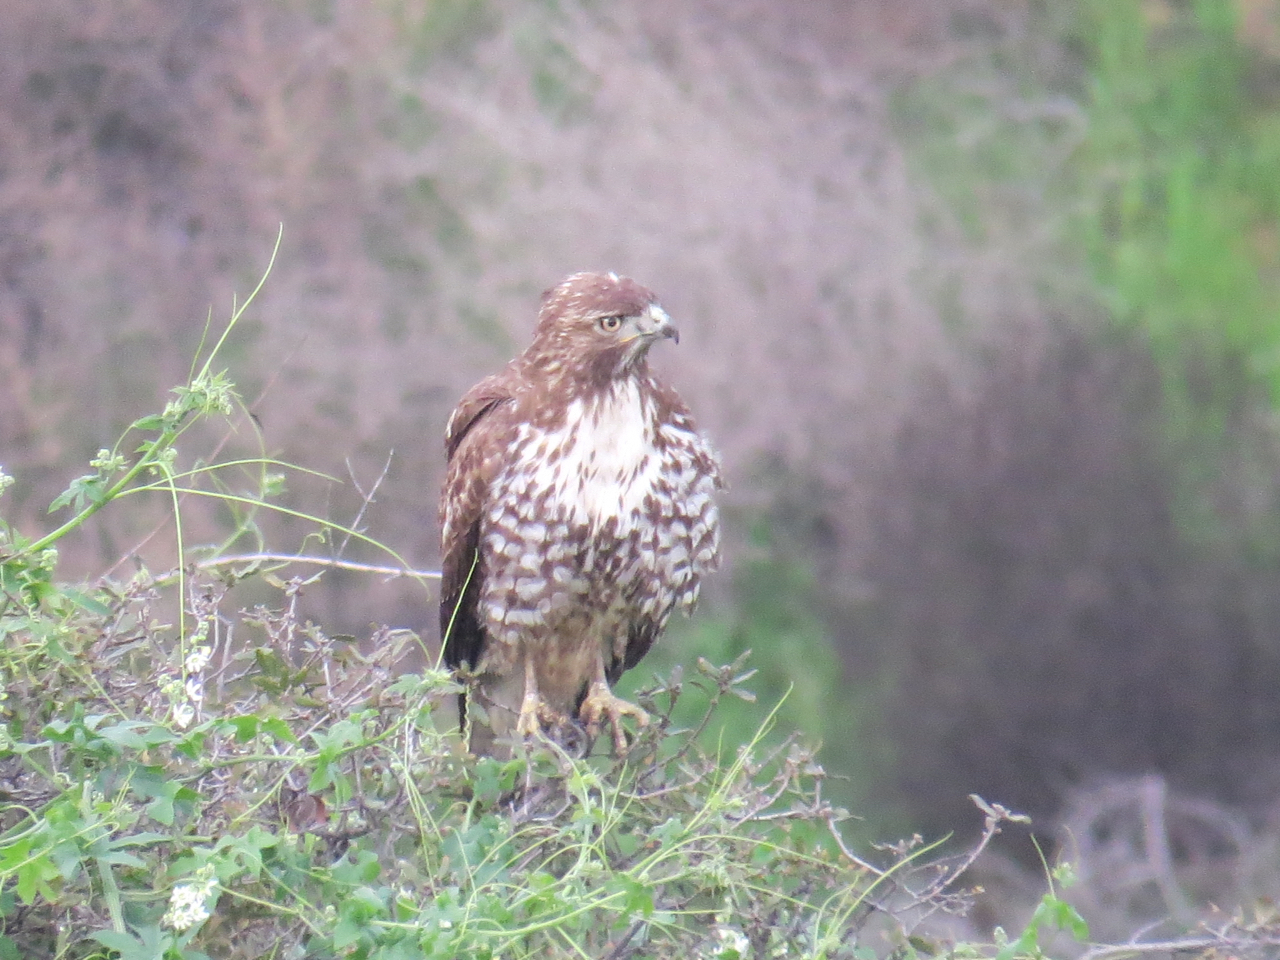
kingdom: Animalia
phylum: Chordata
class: Aves
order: Accipitriformes
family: Accipitridae
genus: Buteo
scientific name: Buteo jamaicensis
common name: Red-tailed hawk
